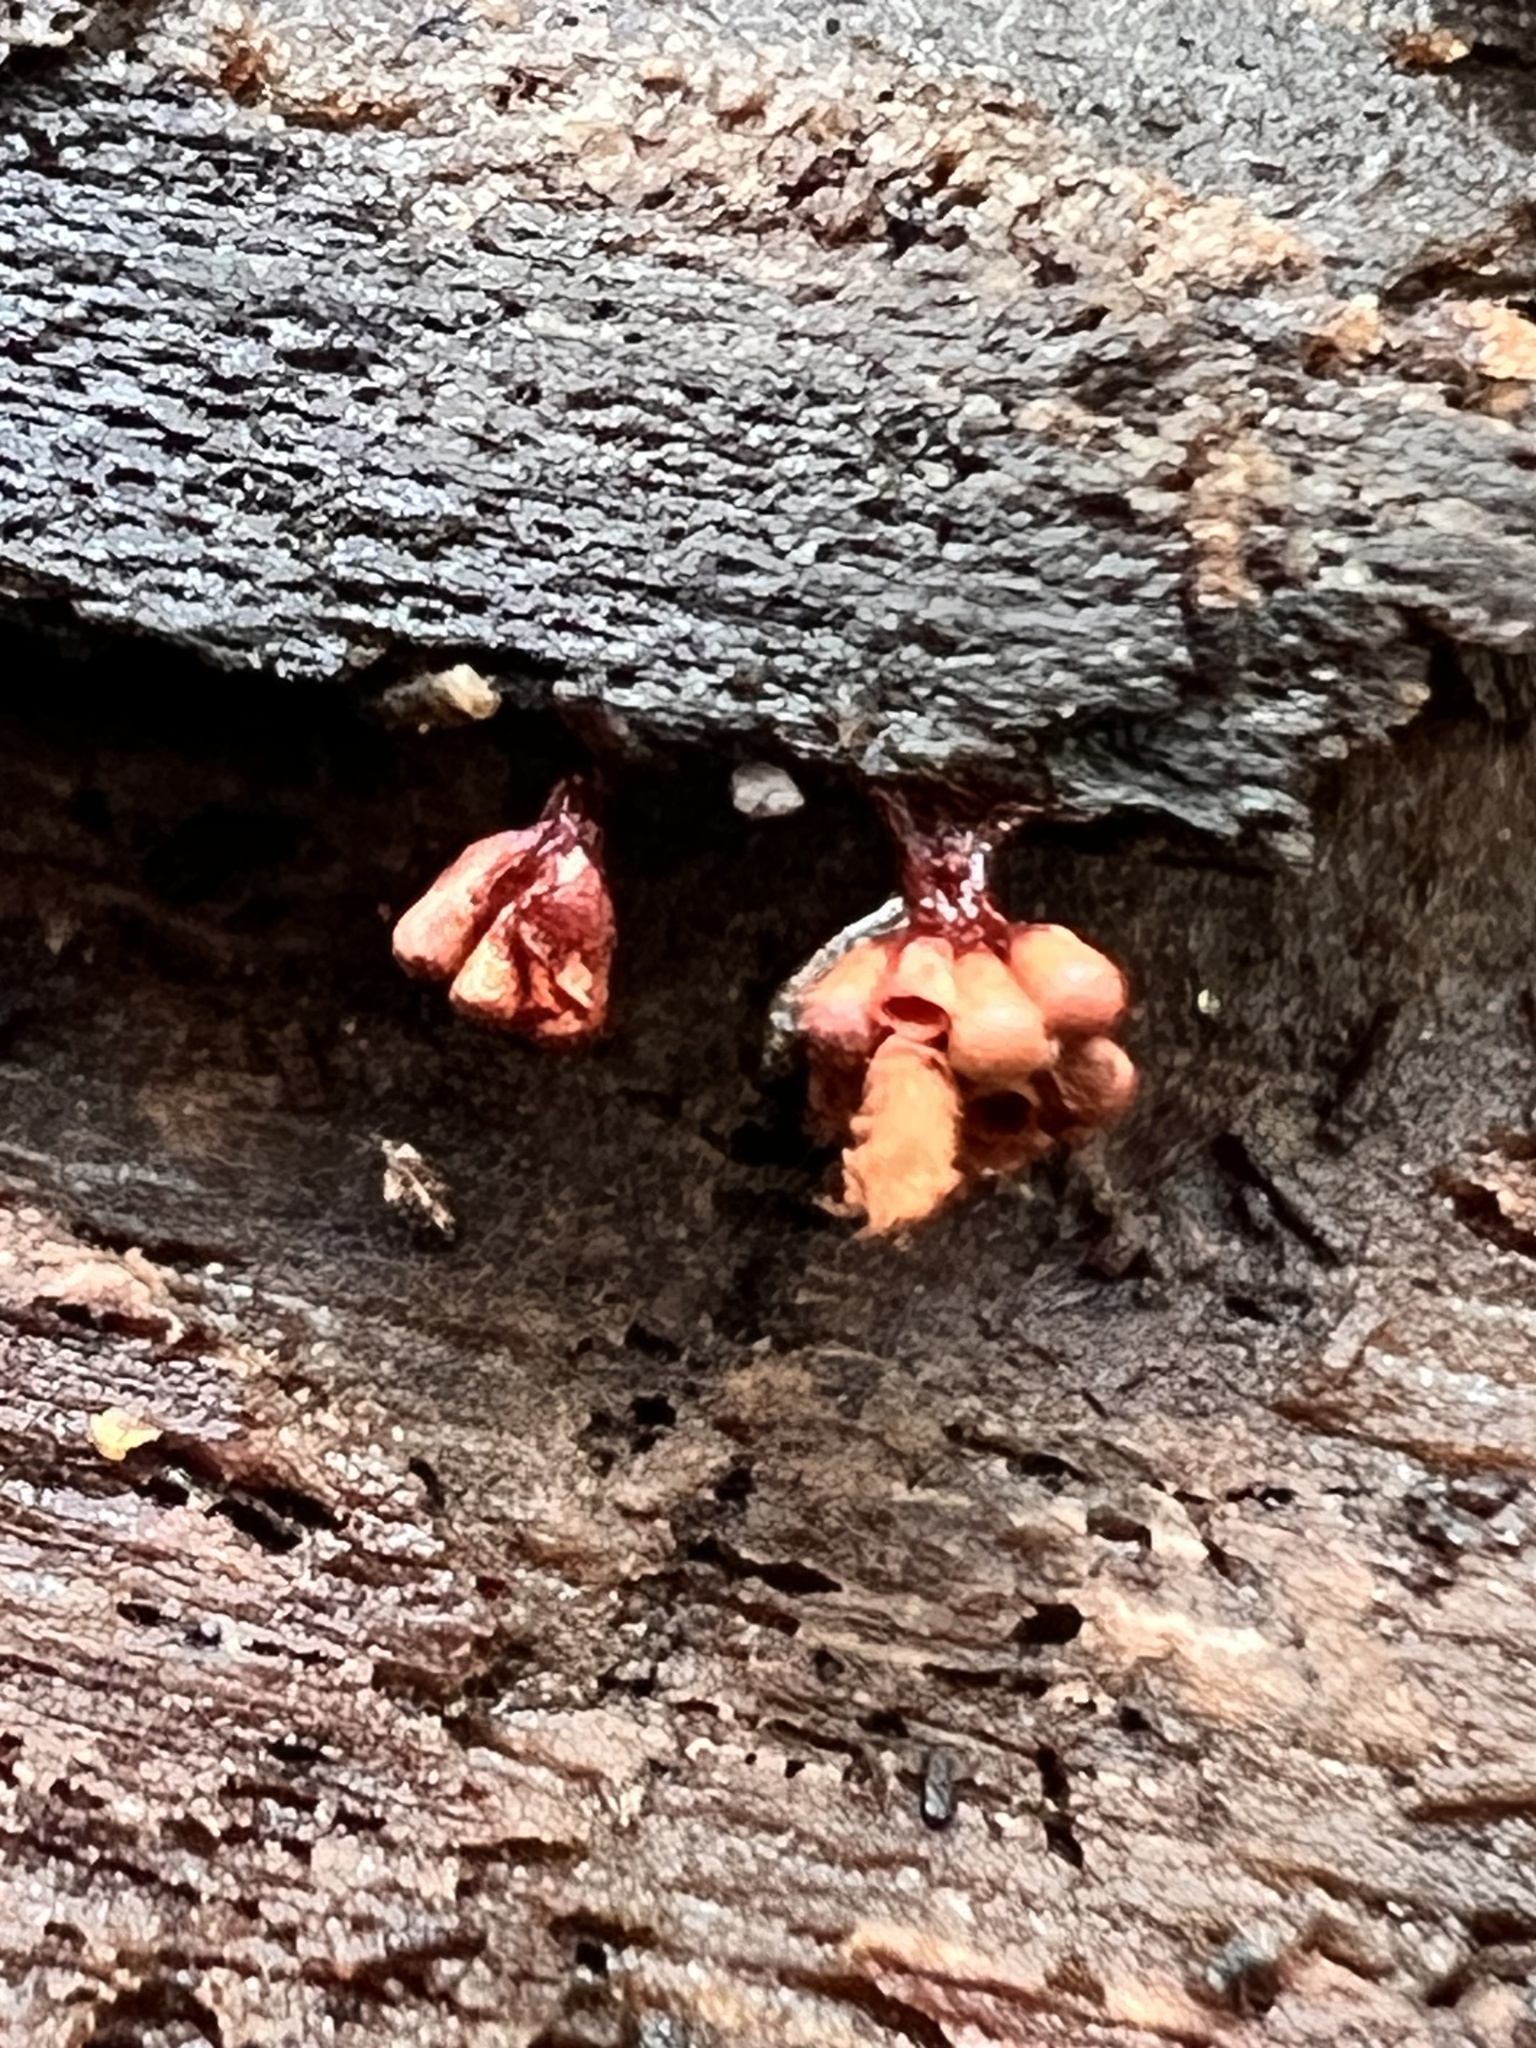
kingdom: Protozoa
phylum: Mycetozoa
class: Myxomycetes
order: Trichiales
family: Trichiaceae
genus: Metatrichia
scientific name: Metatrichia vesparia
